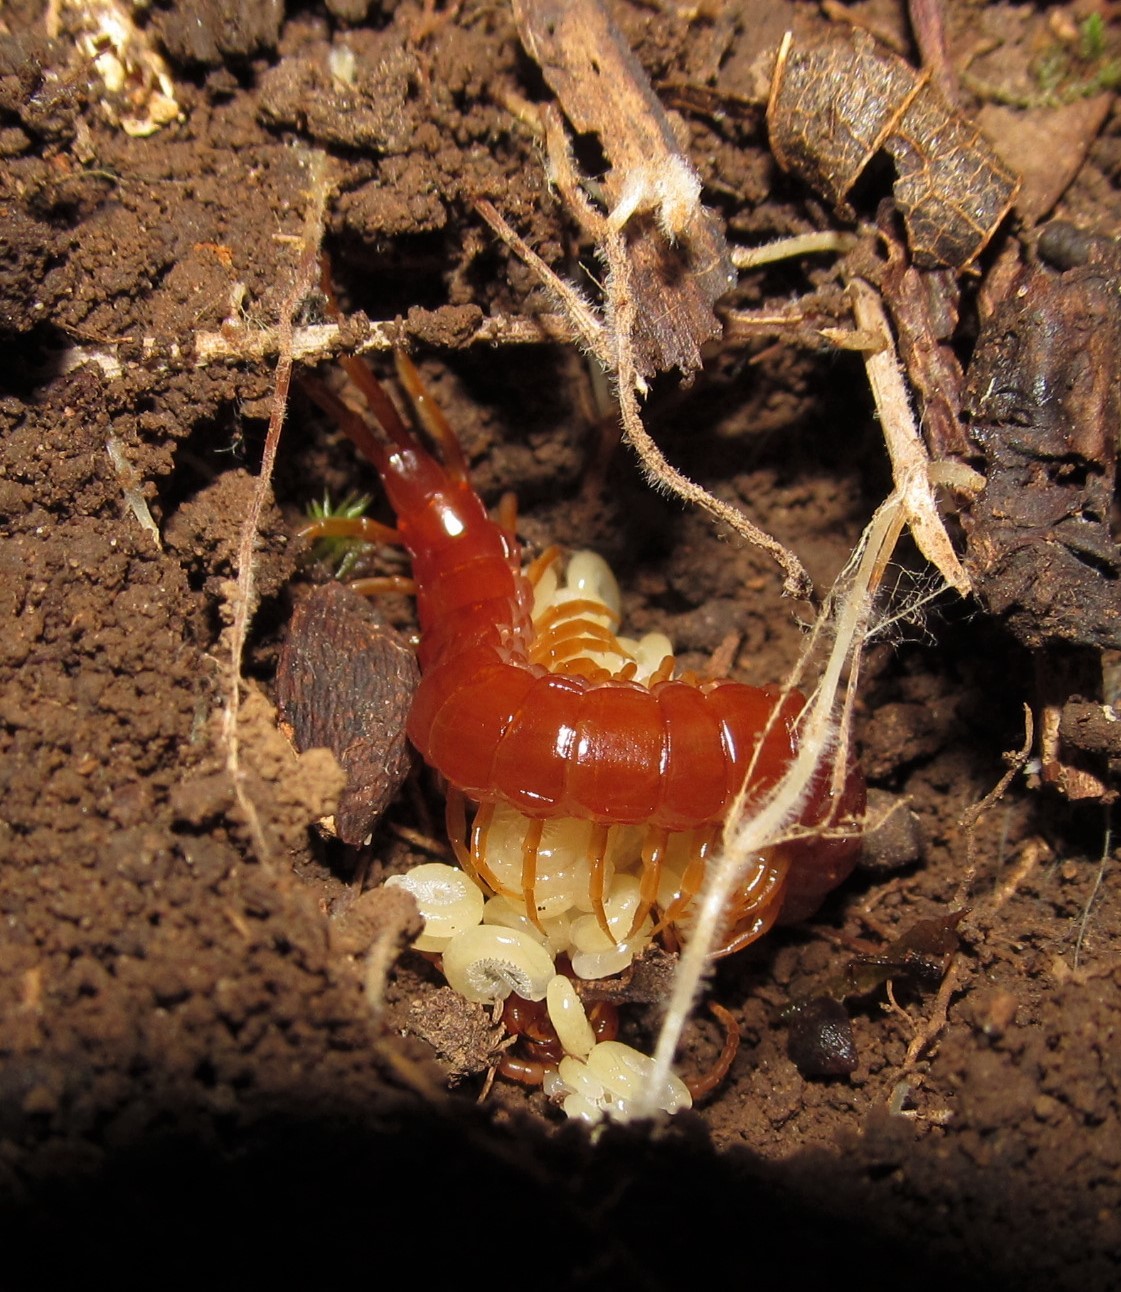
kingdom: Animalia
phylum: Arthropoda
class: Chilopoda
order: Scolopendromorpha
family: Scolopocryptopidae
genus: Scolopocryptops
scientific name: Scolopocryptops sexspinosus
